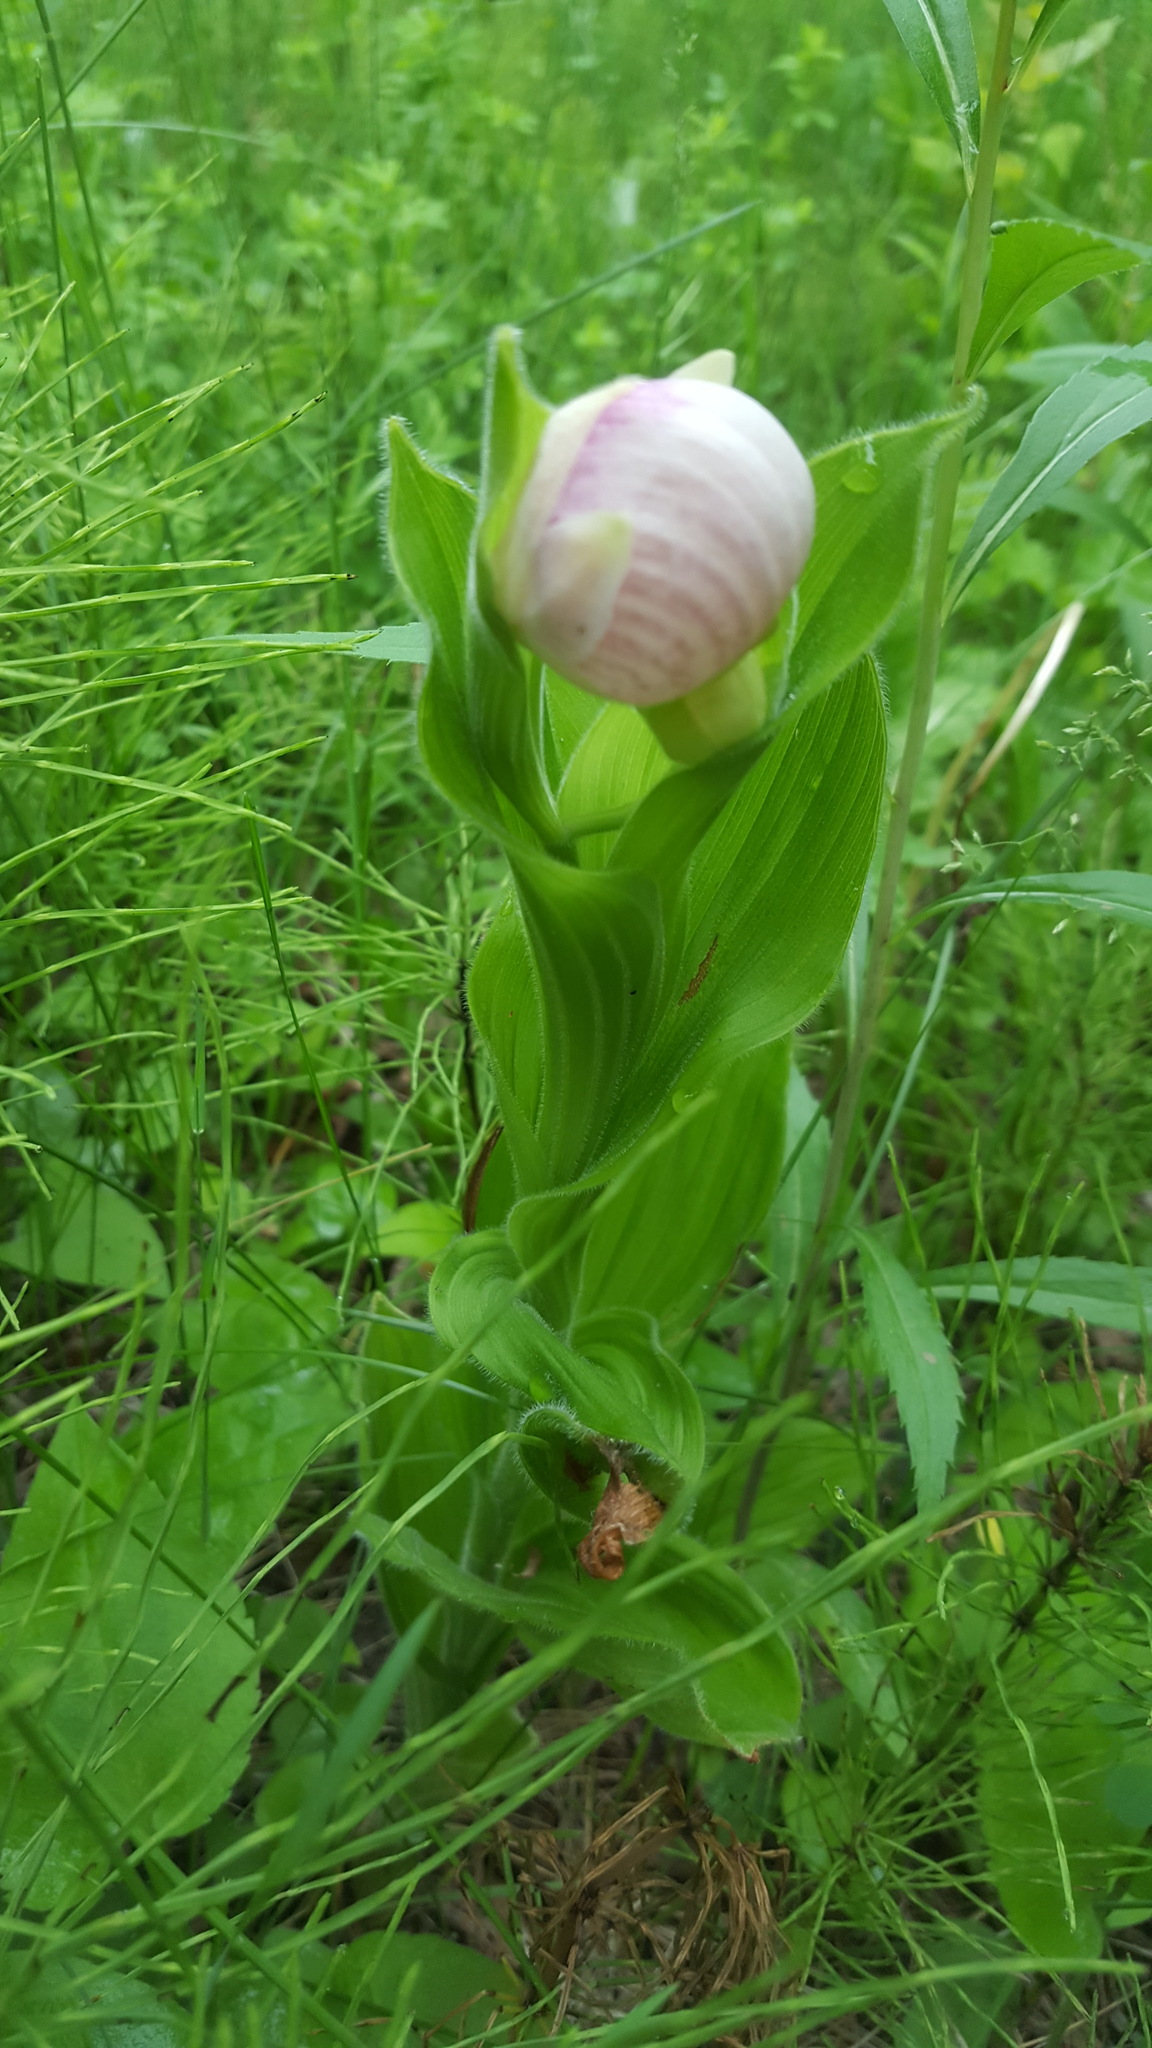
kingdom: Plantae
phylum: Tracheophyta
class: Liliopsida
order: Asparagales
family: Orchidaceae
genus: Cypripedium
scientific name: Cypripedium reginae
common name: Queen lady's-slipper
